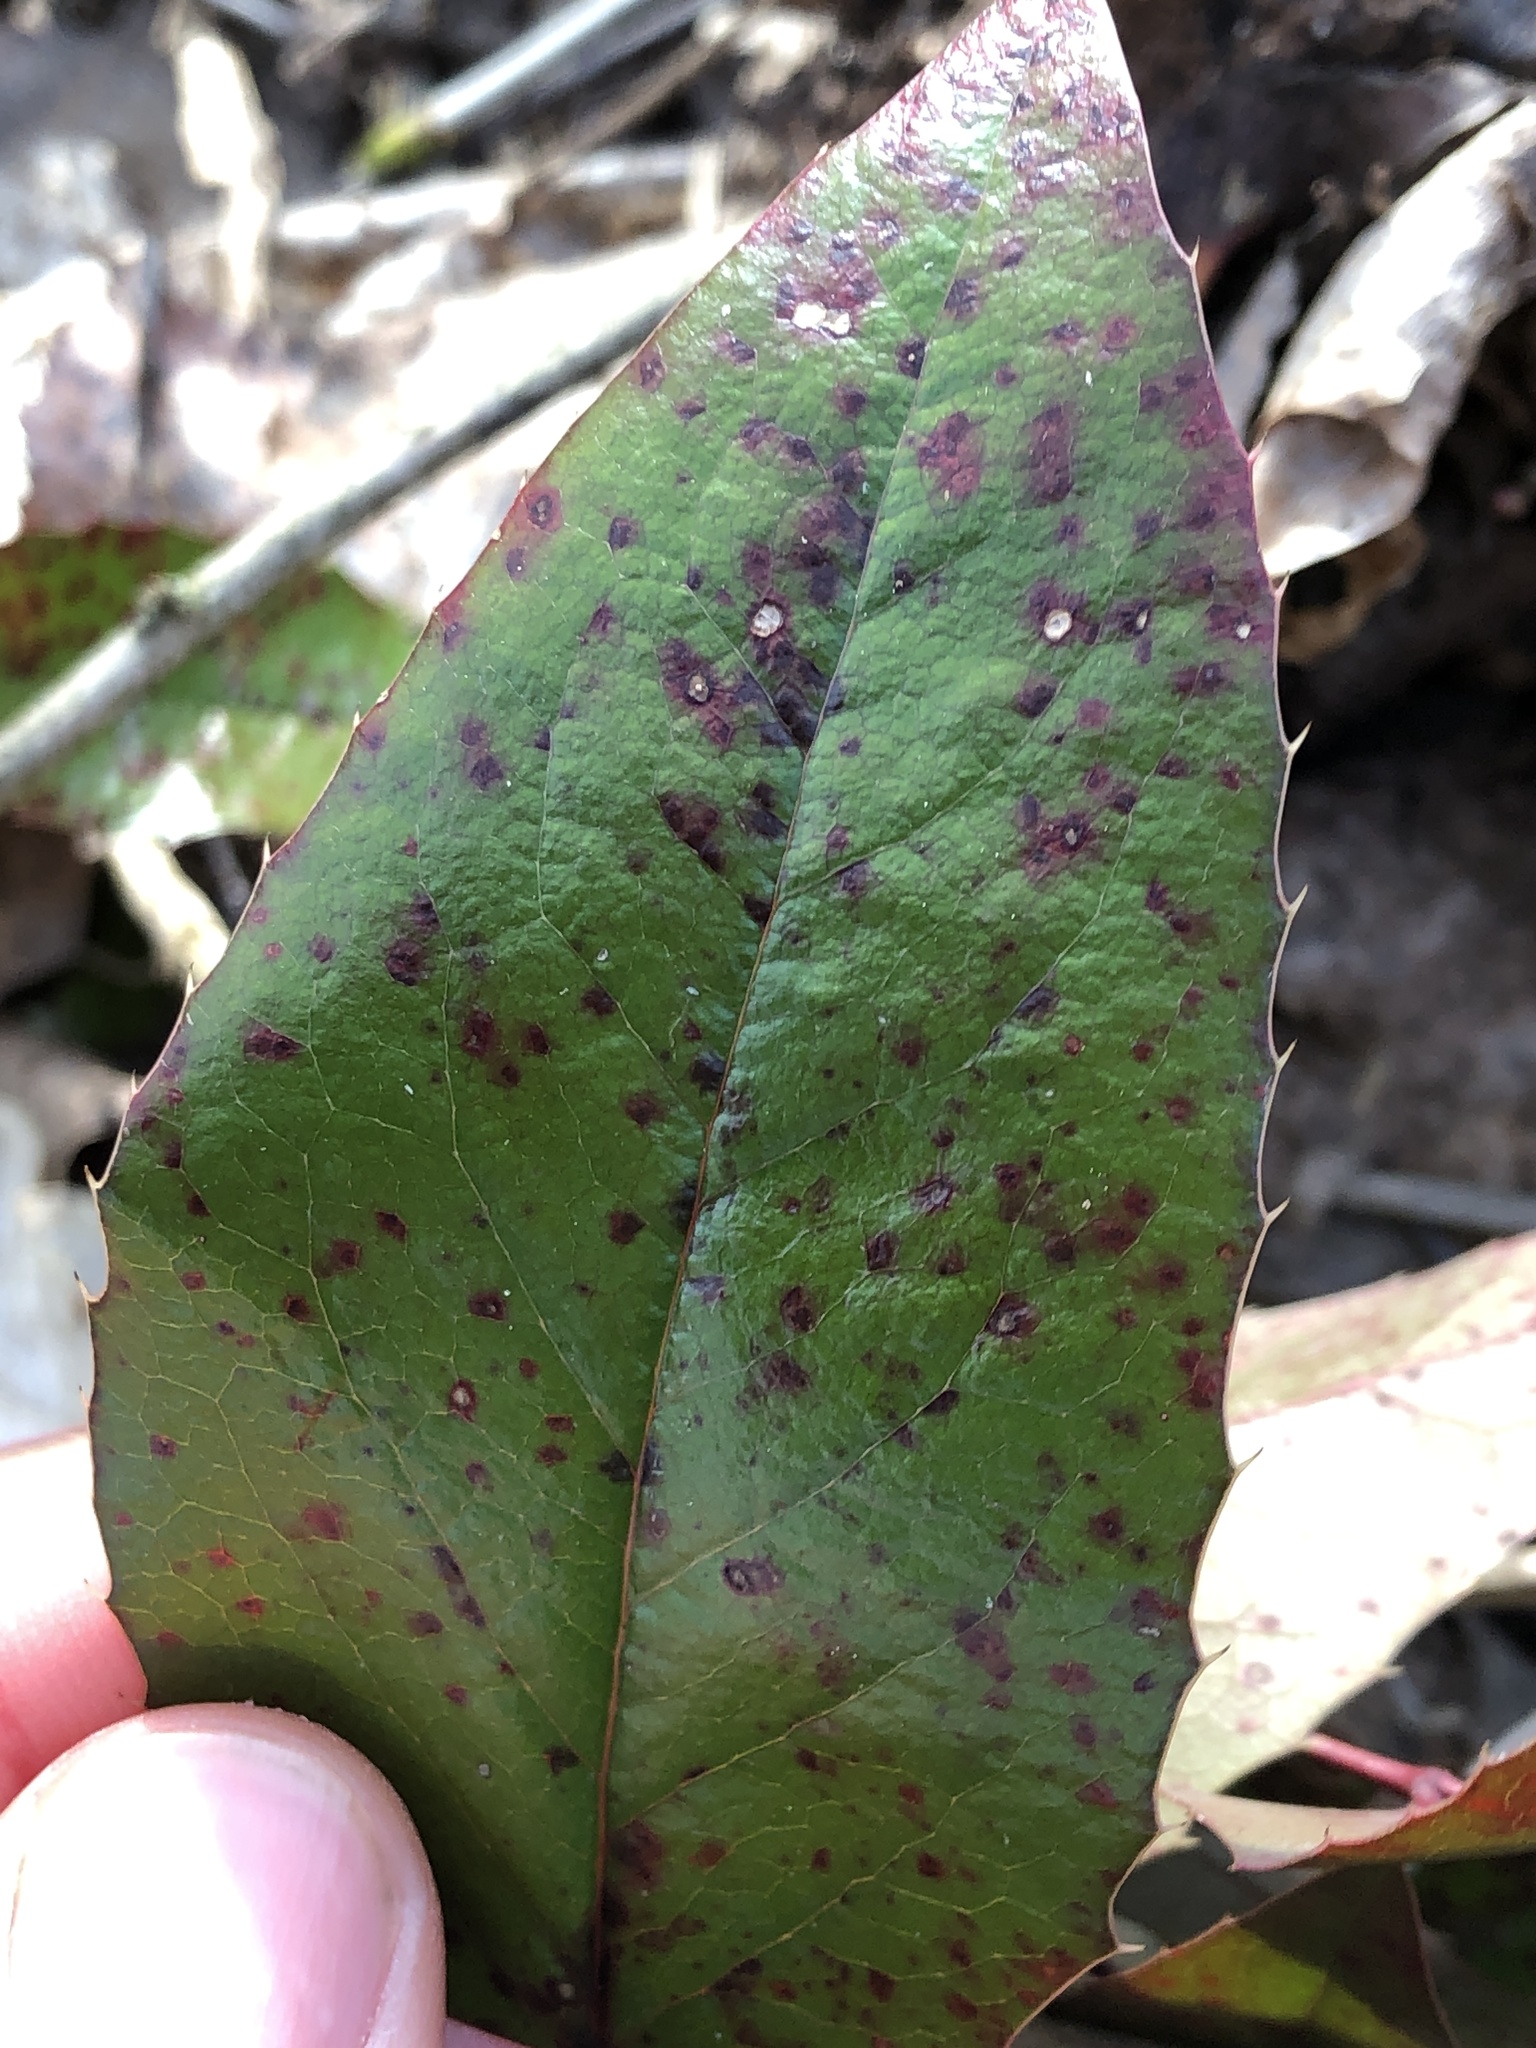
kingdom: Fungi
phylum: Basidiomycota
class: Pucciniomycetes
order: Pucciniales
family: Pucciniaceae
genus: Cumminsiella
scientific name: Cumminsiella mirabilissima
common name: Mahonia rust
